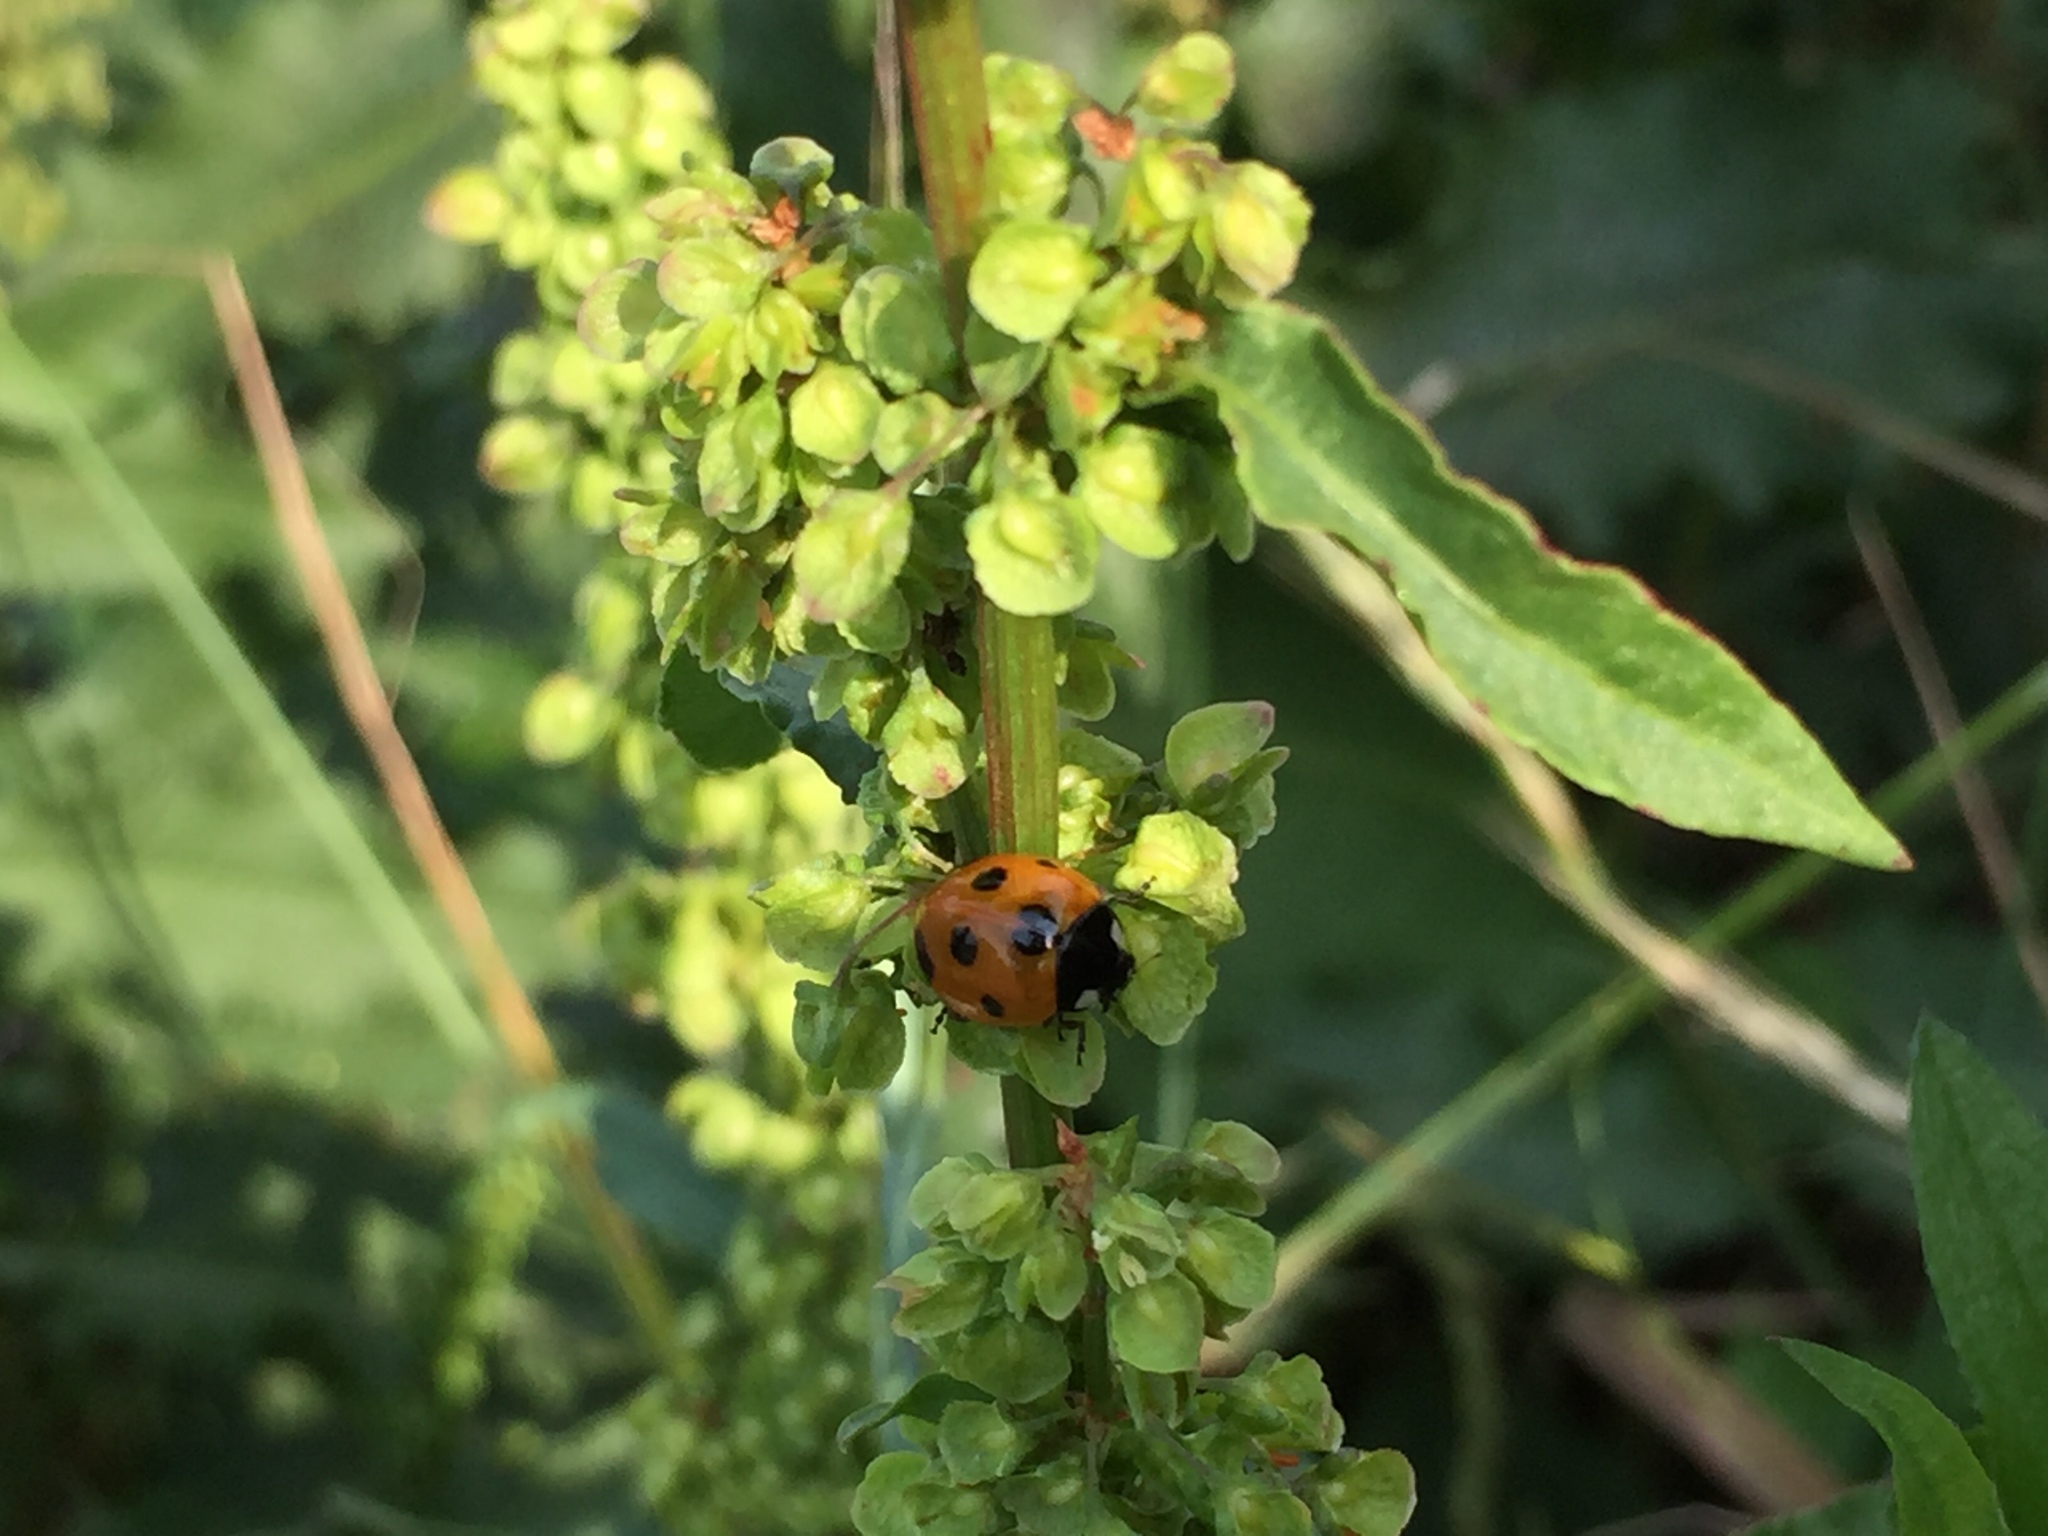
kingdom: Animalia
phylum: Arthropoda
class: Insecta
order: Coleoptera
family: Coccinellidae
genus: Coccinella
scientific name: Coccinella septempunctata
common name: Sevenspotted lady beetle
